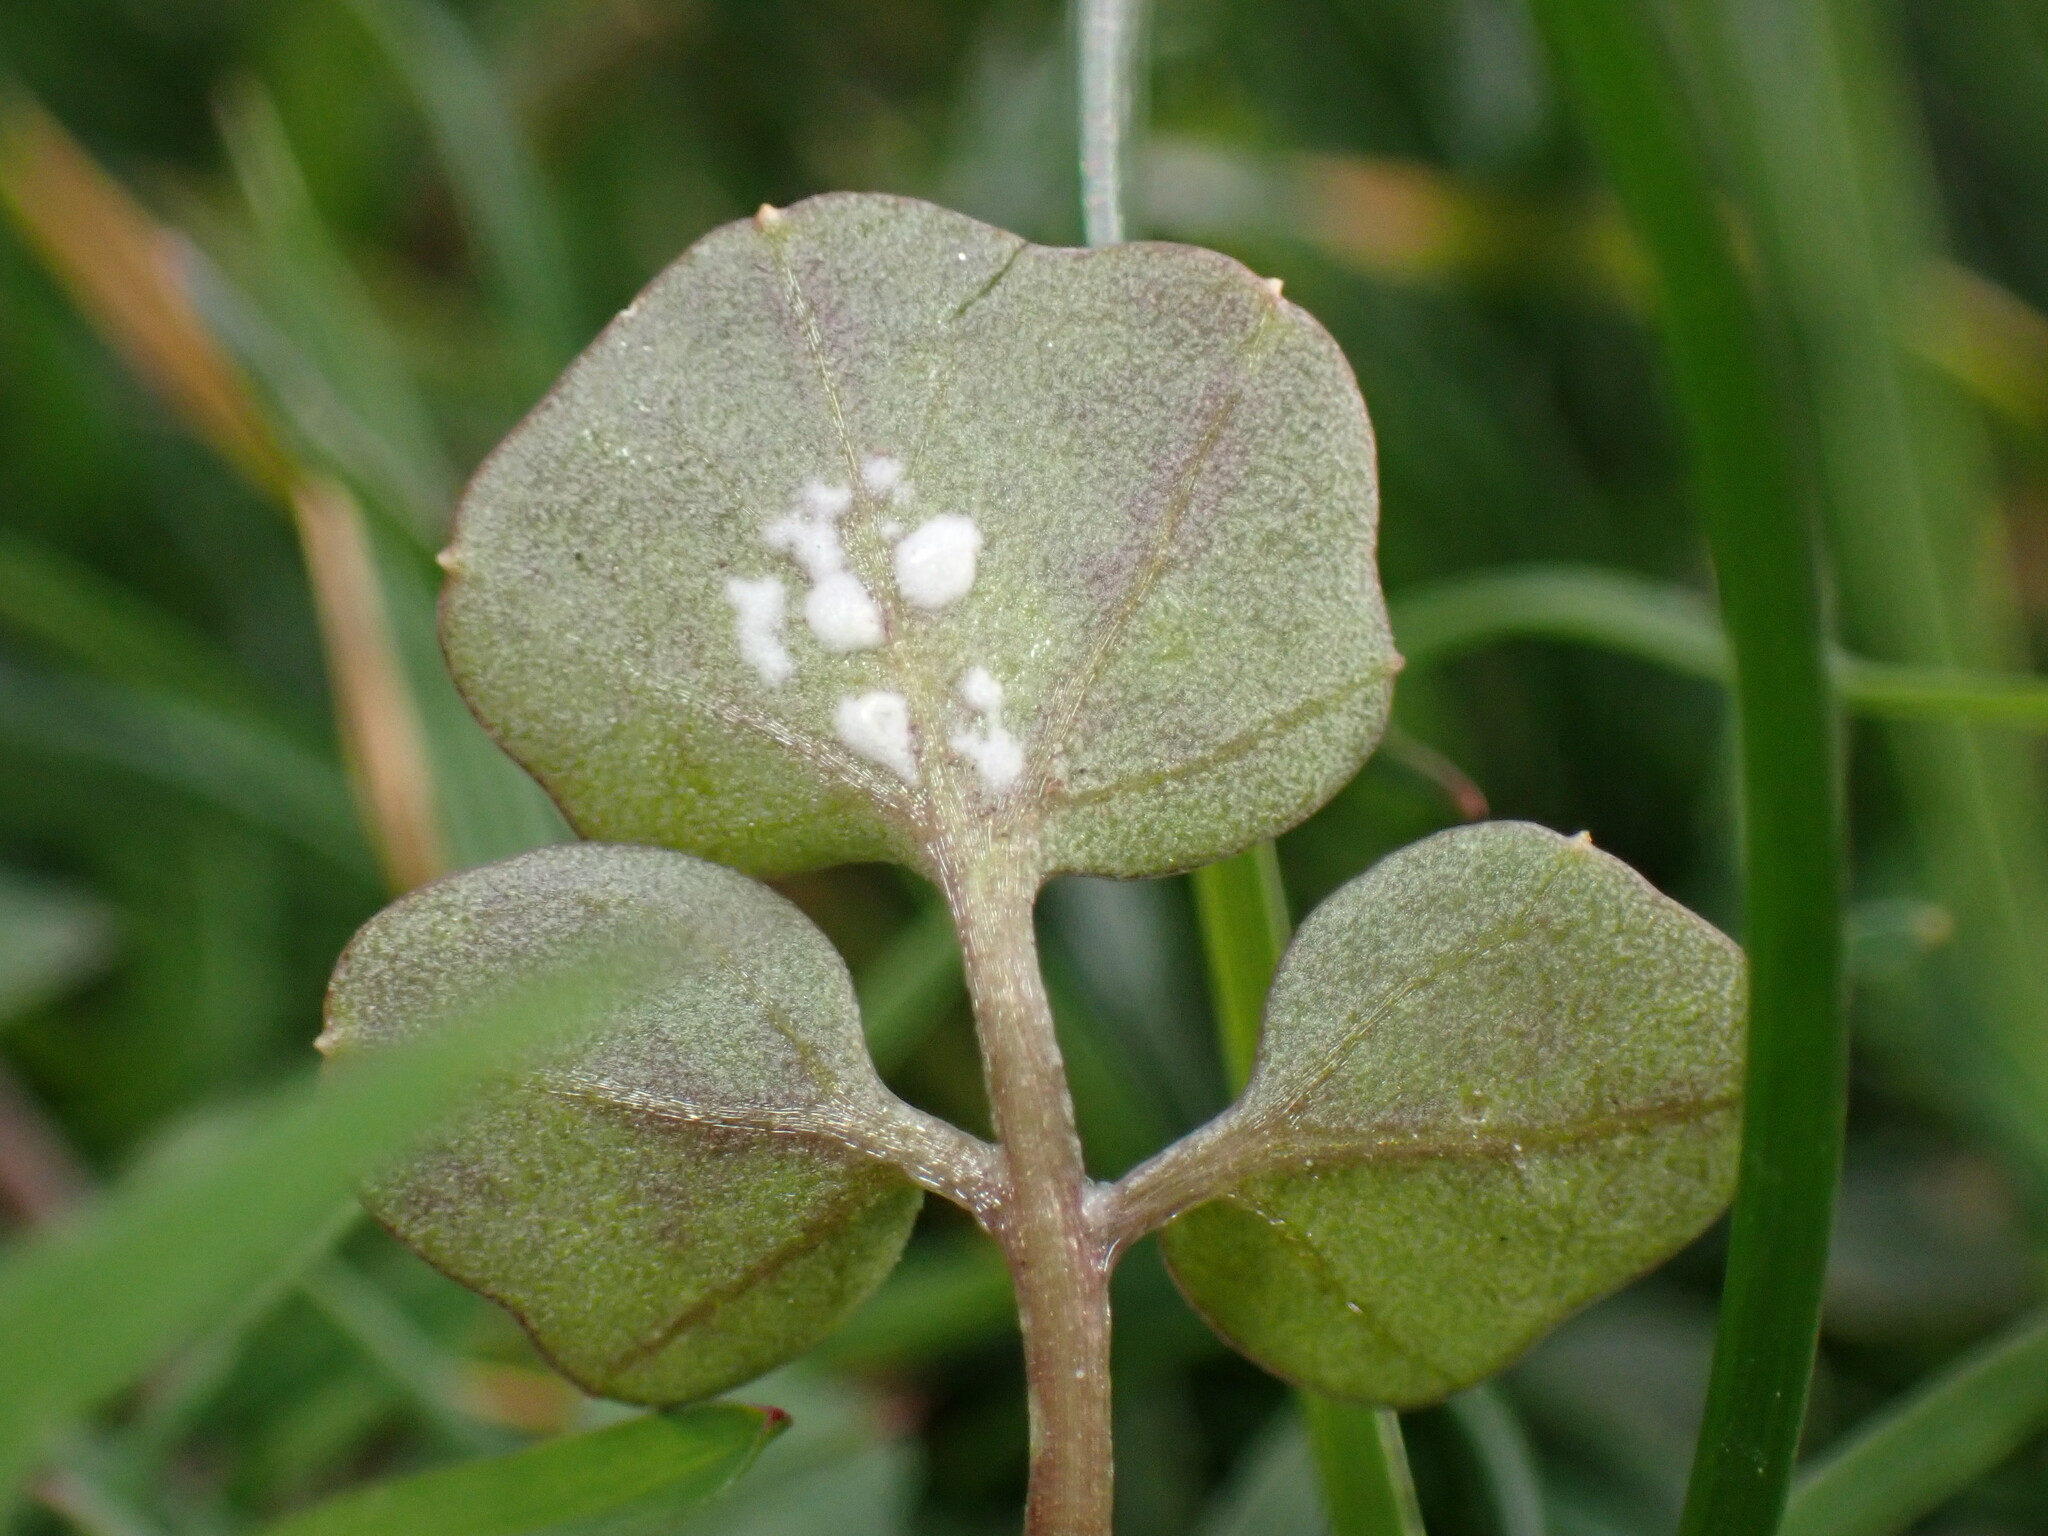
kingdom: Chromista
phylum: Oomycota
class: Peronosporea
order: Albuginales
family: Albuginaceae
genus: Albugo
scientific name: Albugo hohenheimia
